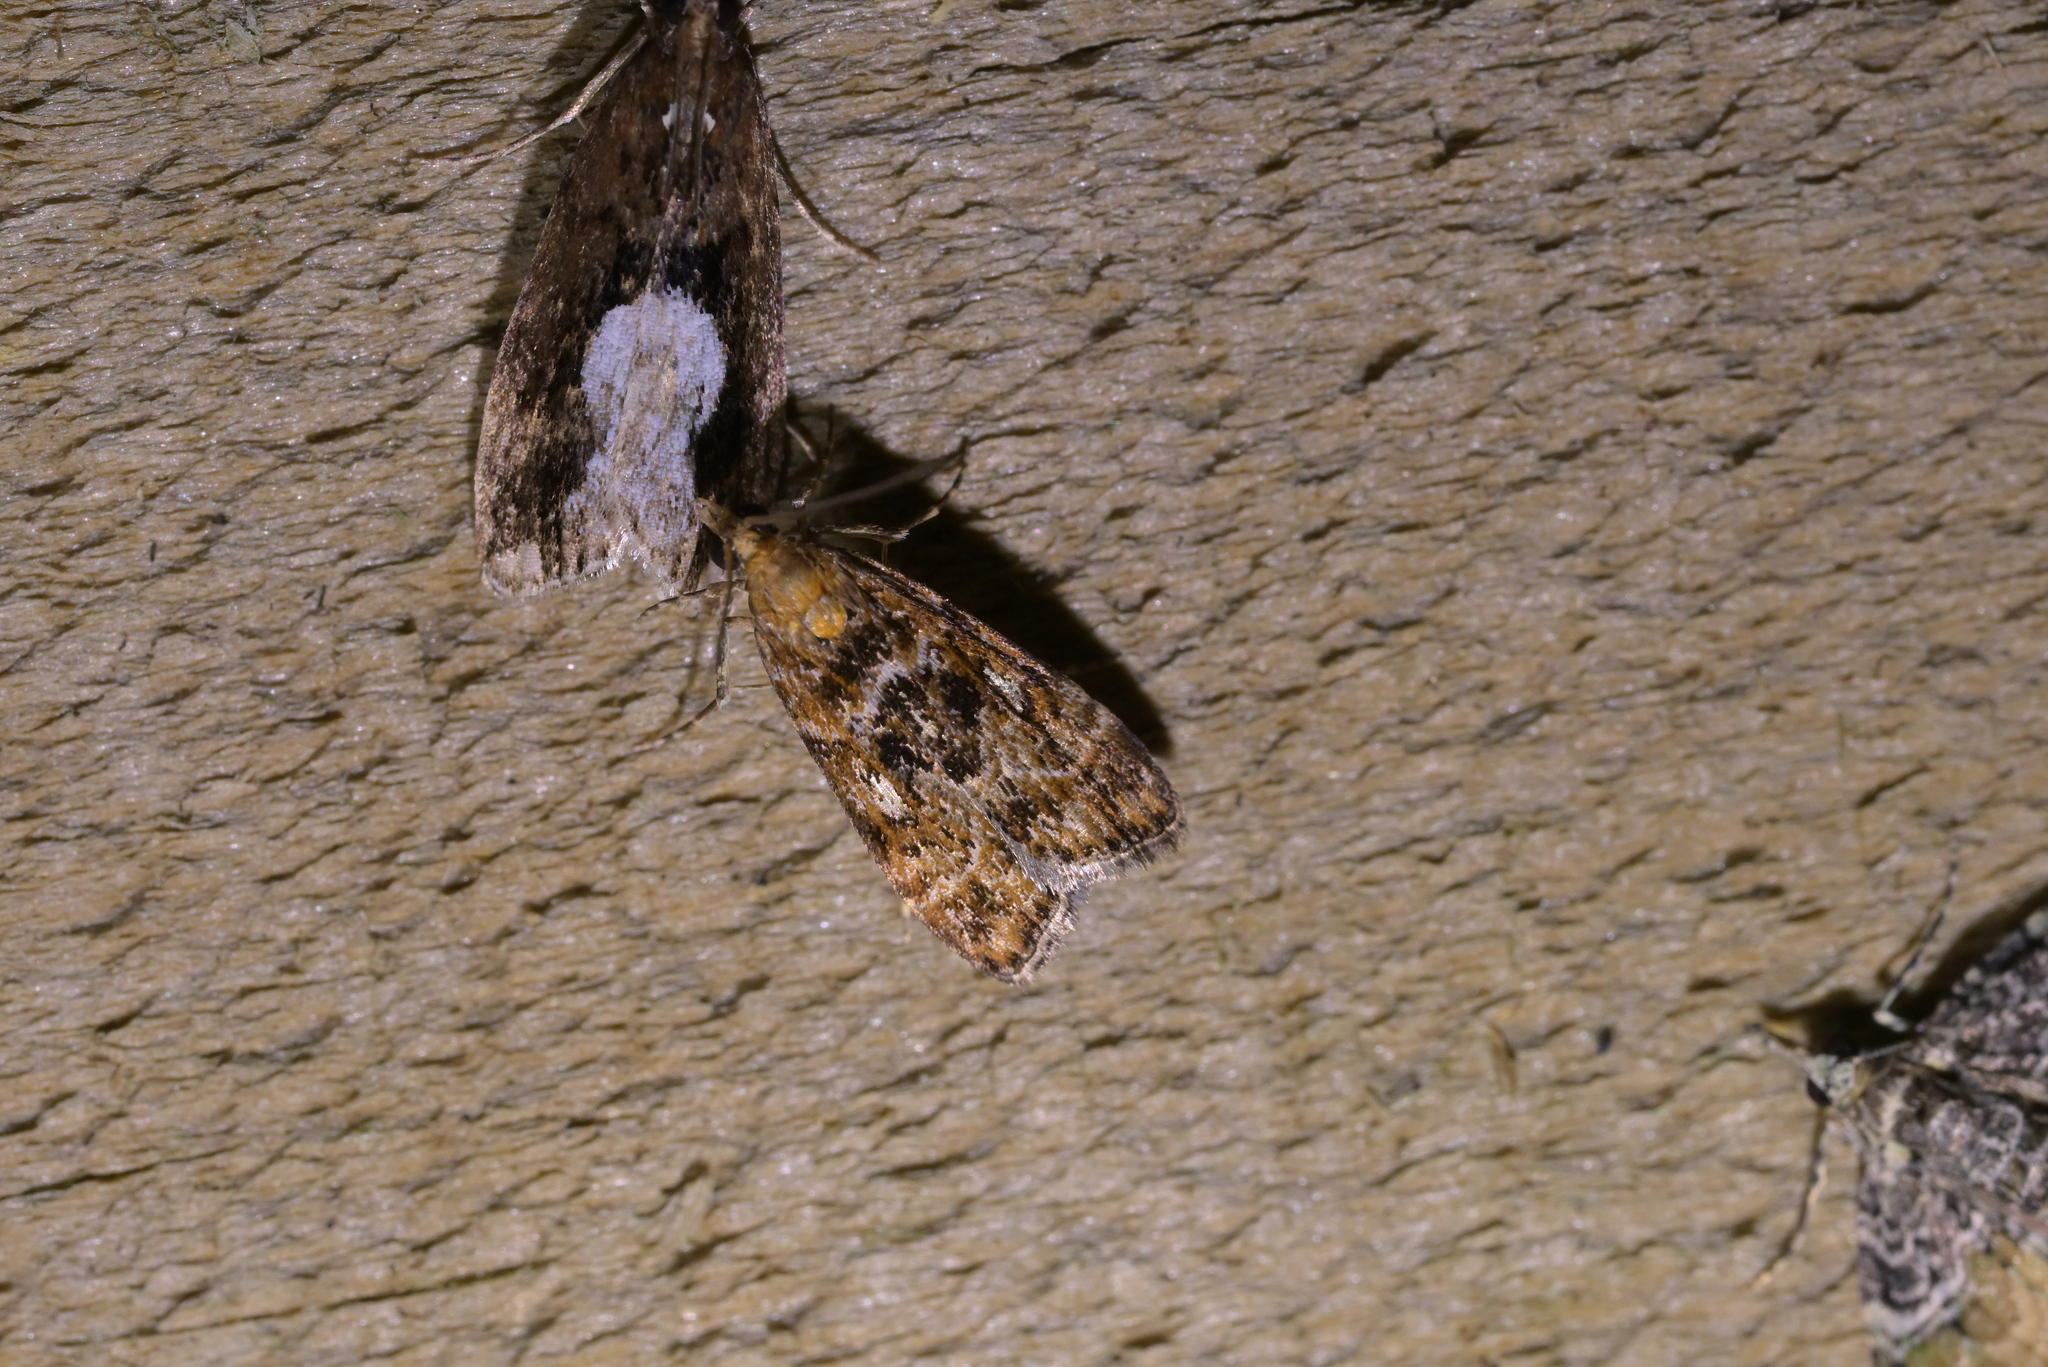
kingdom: Animalia
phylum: Arthropoda
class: Insecta
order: Lepidoptera
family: Crambidae
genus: Scoparia
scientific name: Scoparia animosa
